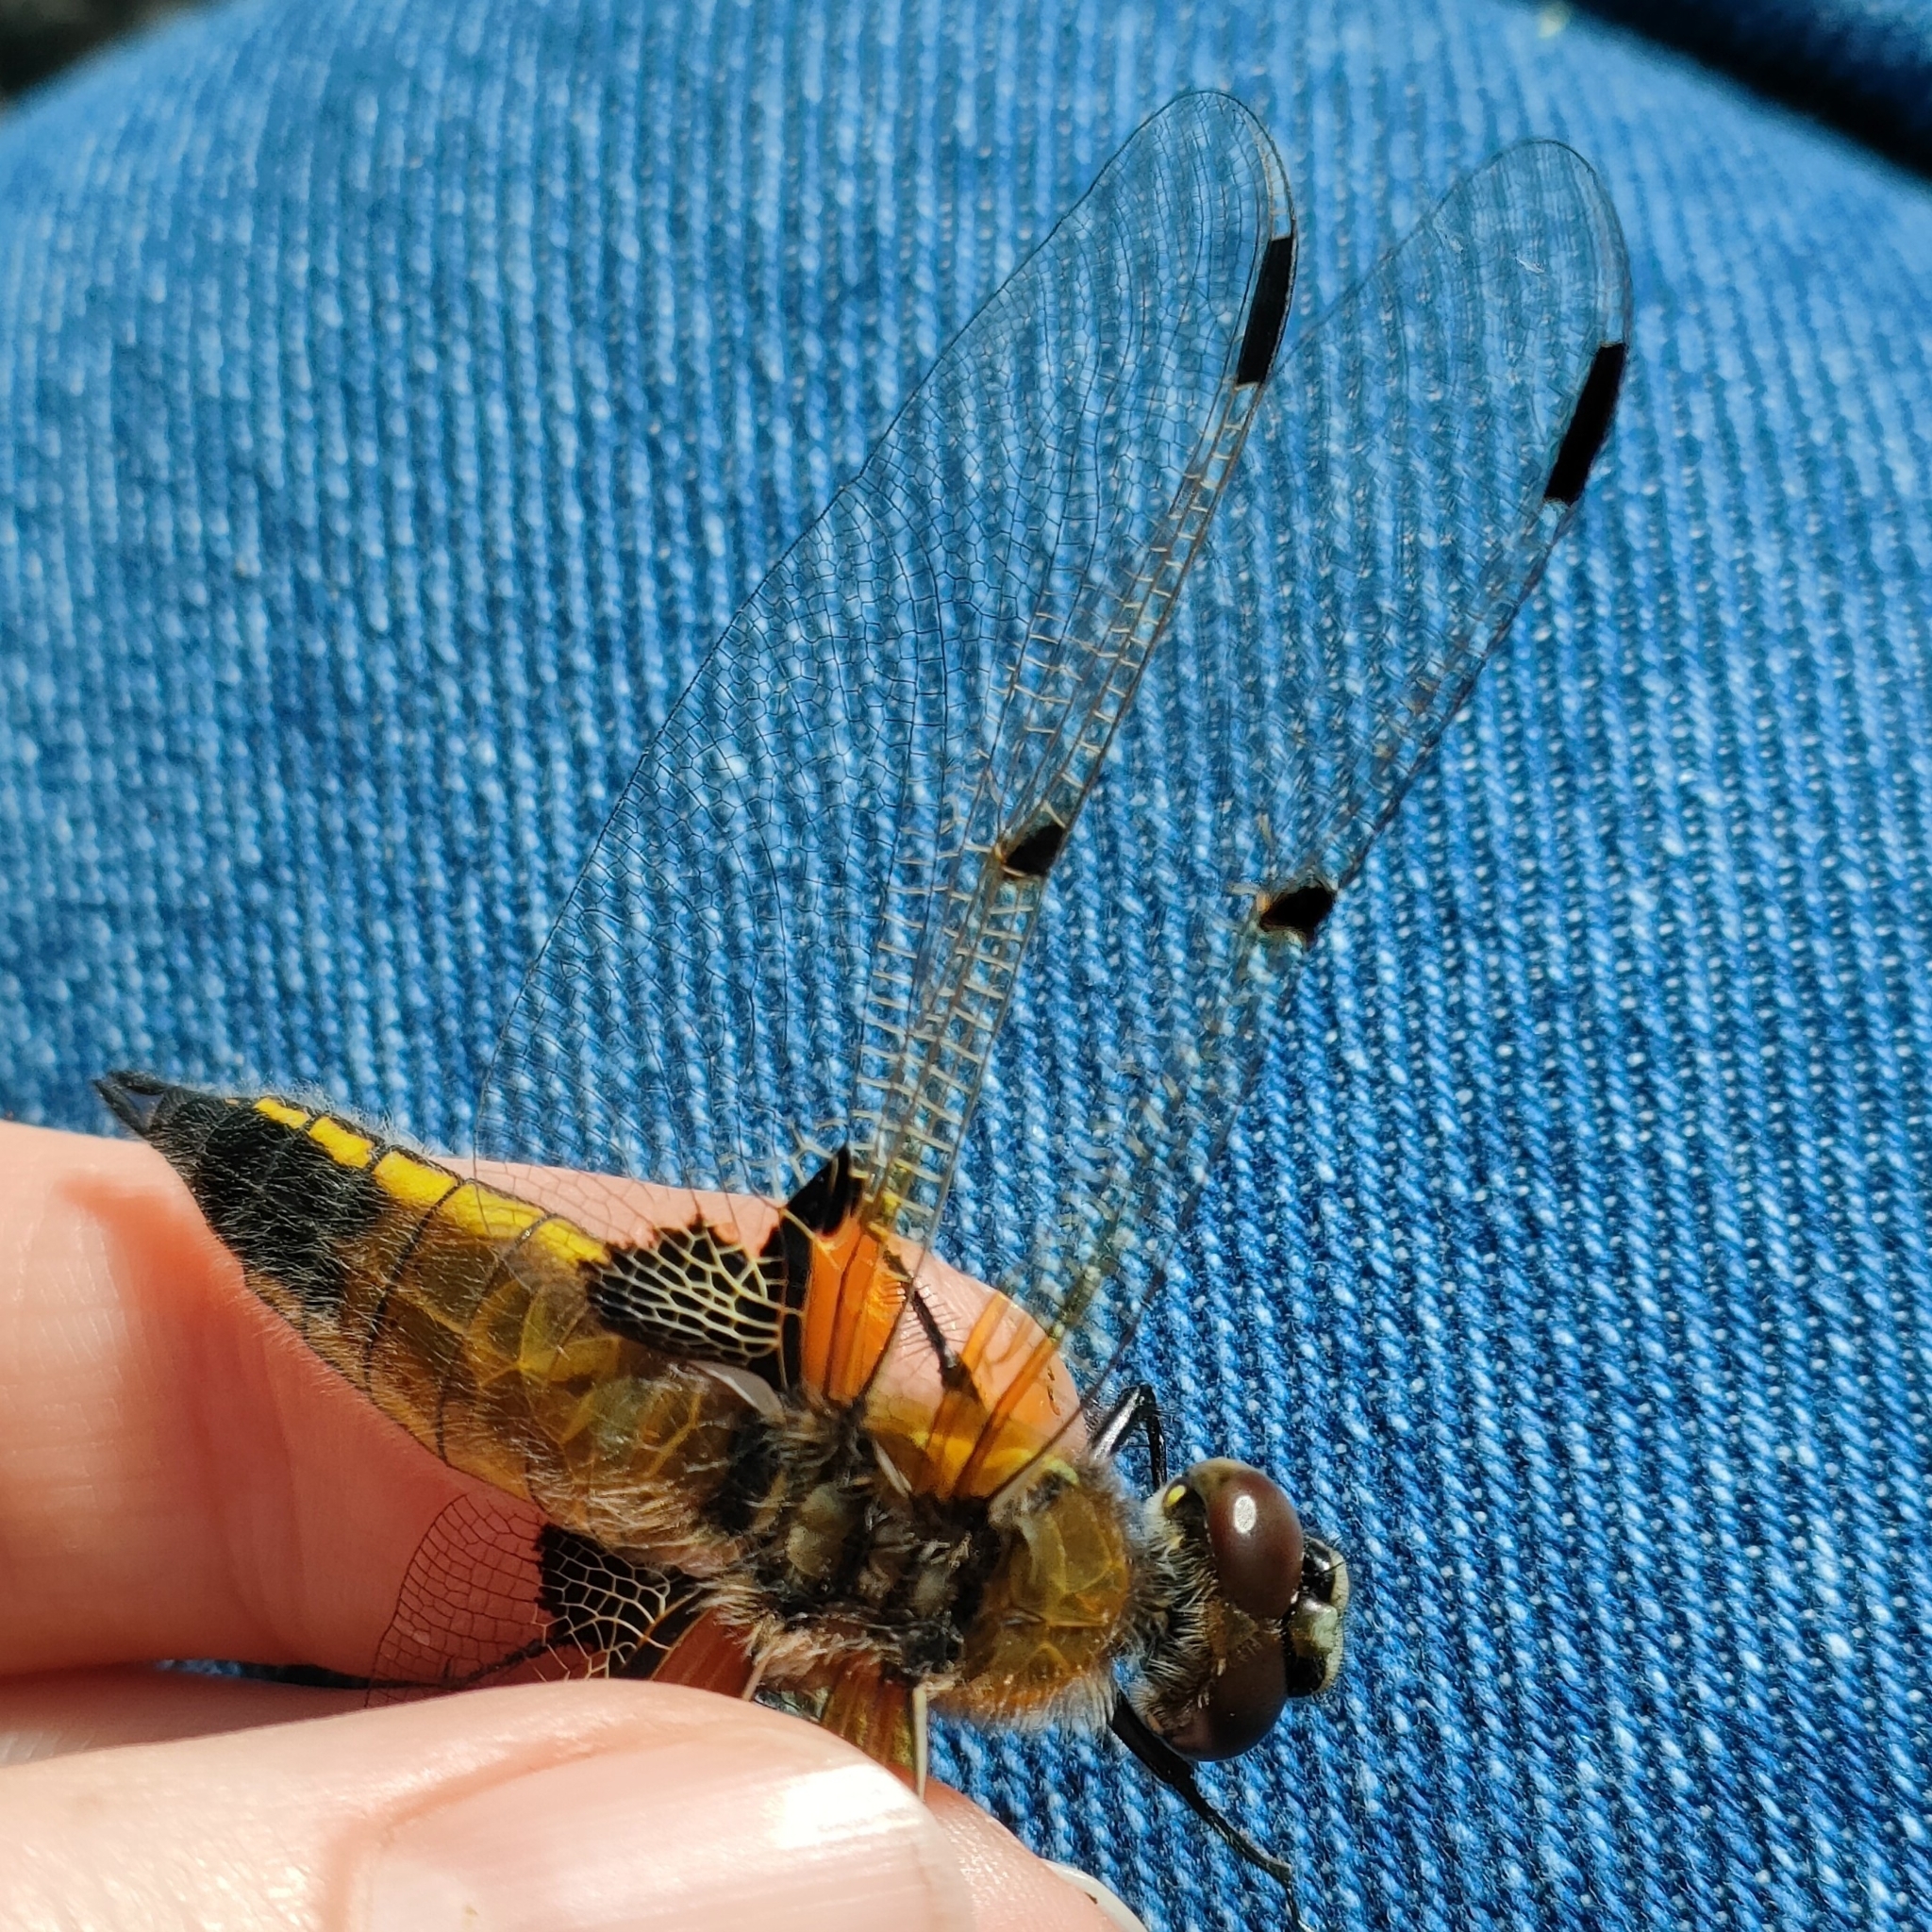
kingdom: Animalia
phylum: Arthropoda
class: Insecta
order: Odonata
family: Libellulidae
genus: Libellula
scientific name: Libellula quadrimaculata
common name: Four-spotted chaser
